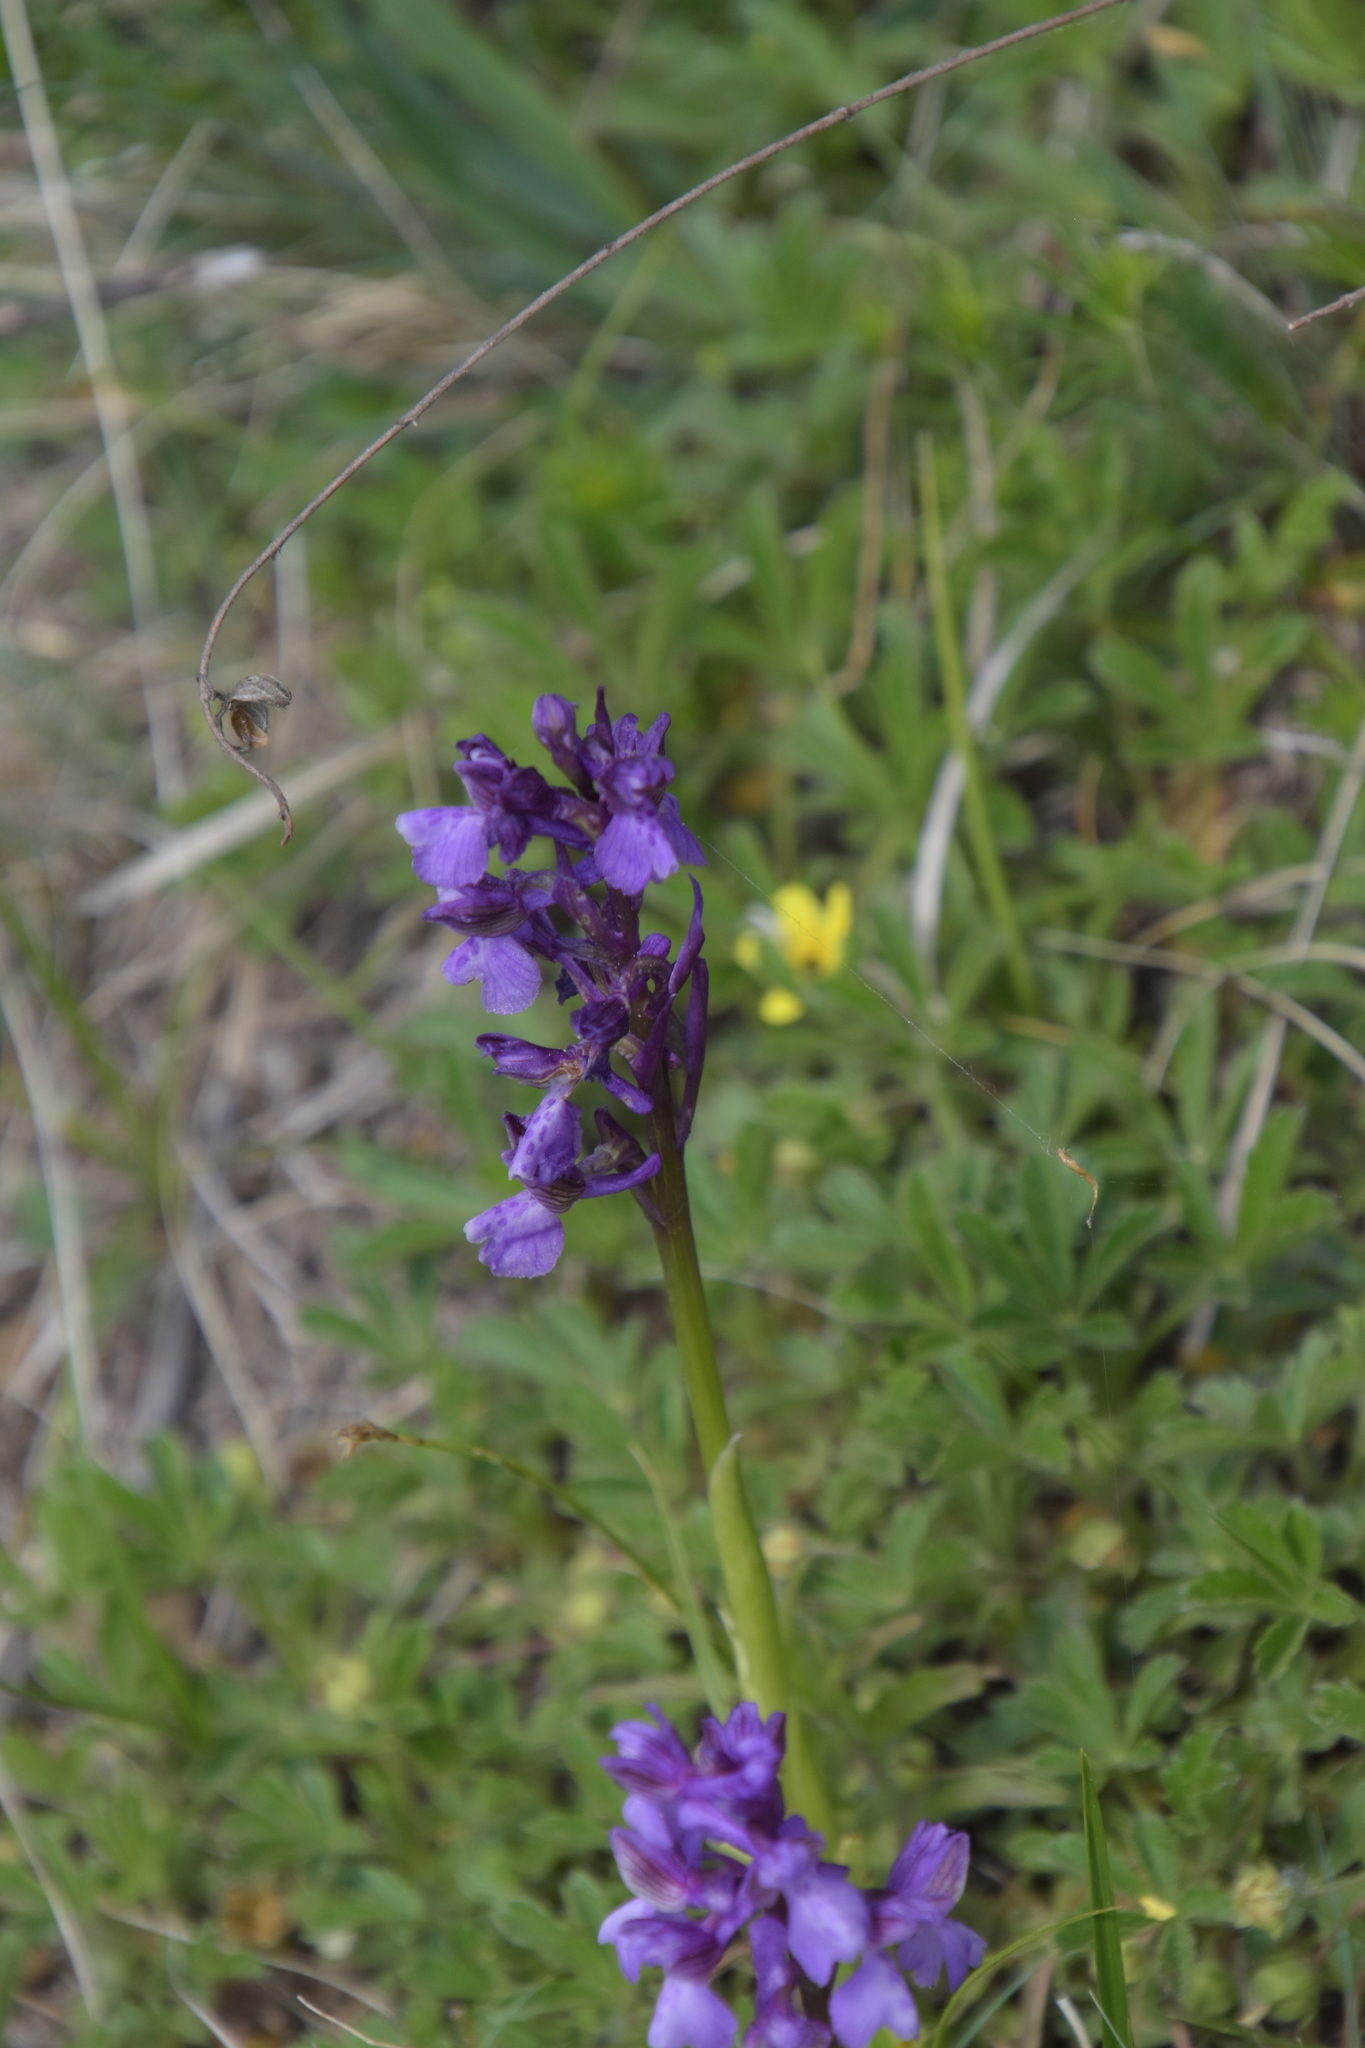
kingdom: Plantae
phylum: Tracheophyta
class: Liliopsida
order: Asparagales
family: Orchidaceae
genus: Anacamptis
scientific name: Anacamptis morio
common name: Green-winged orchid
